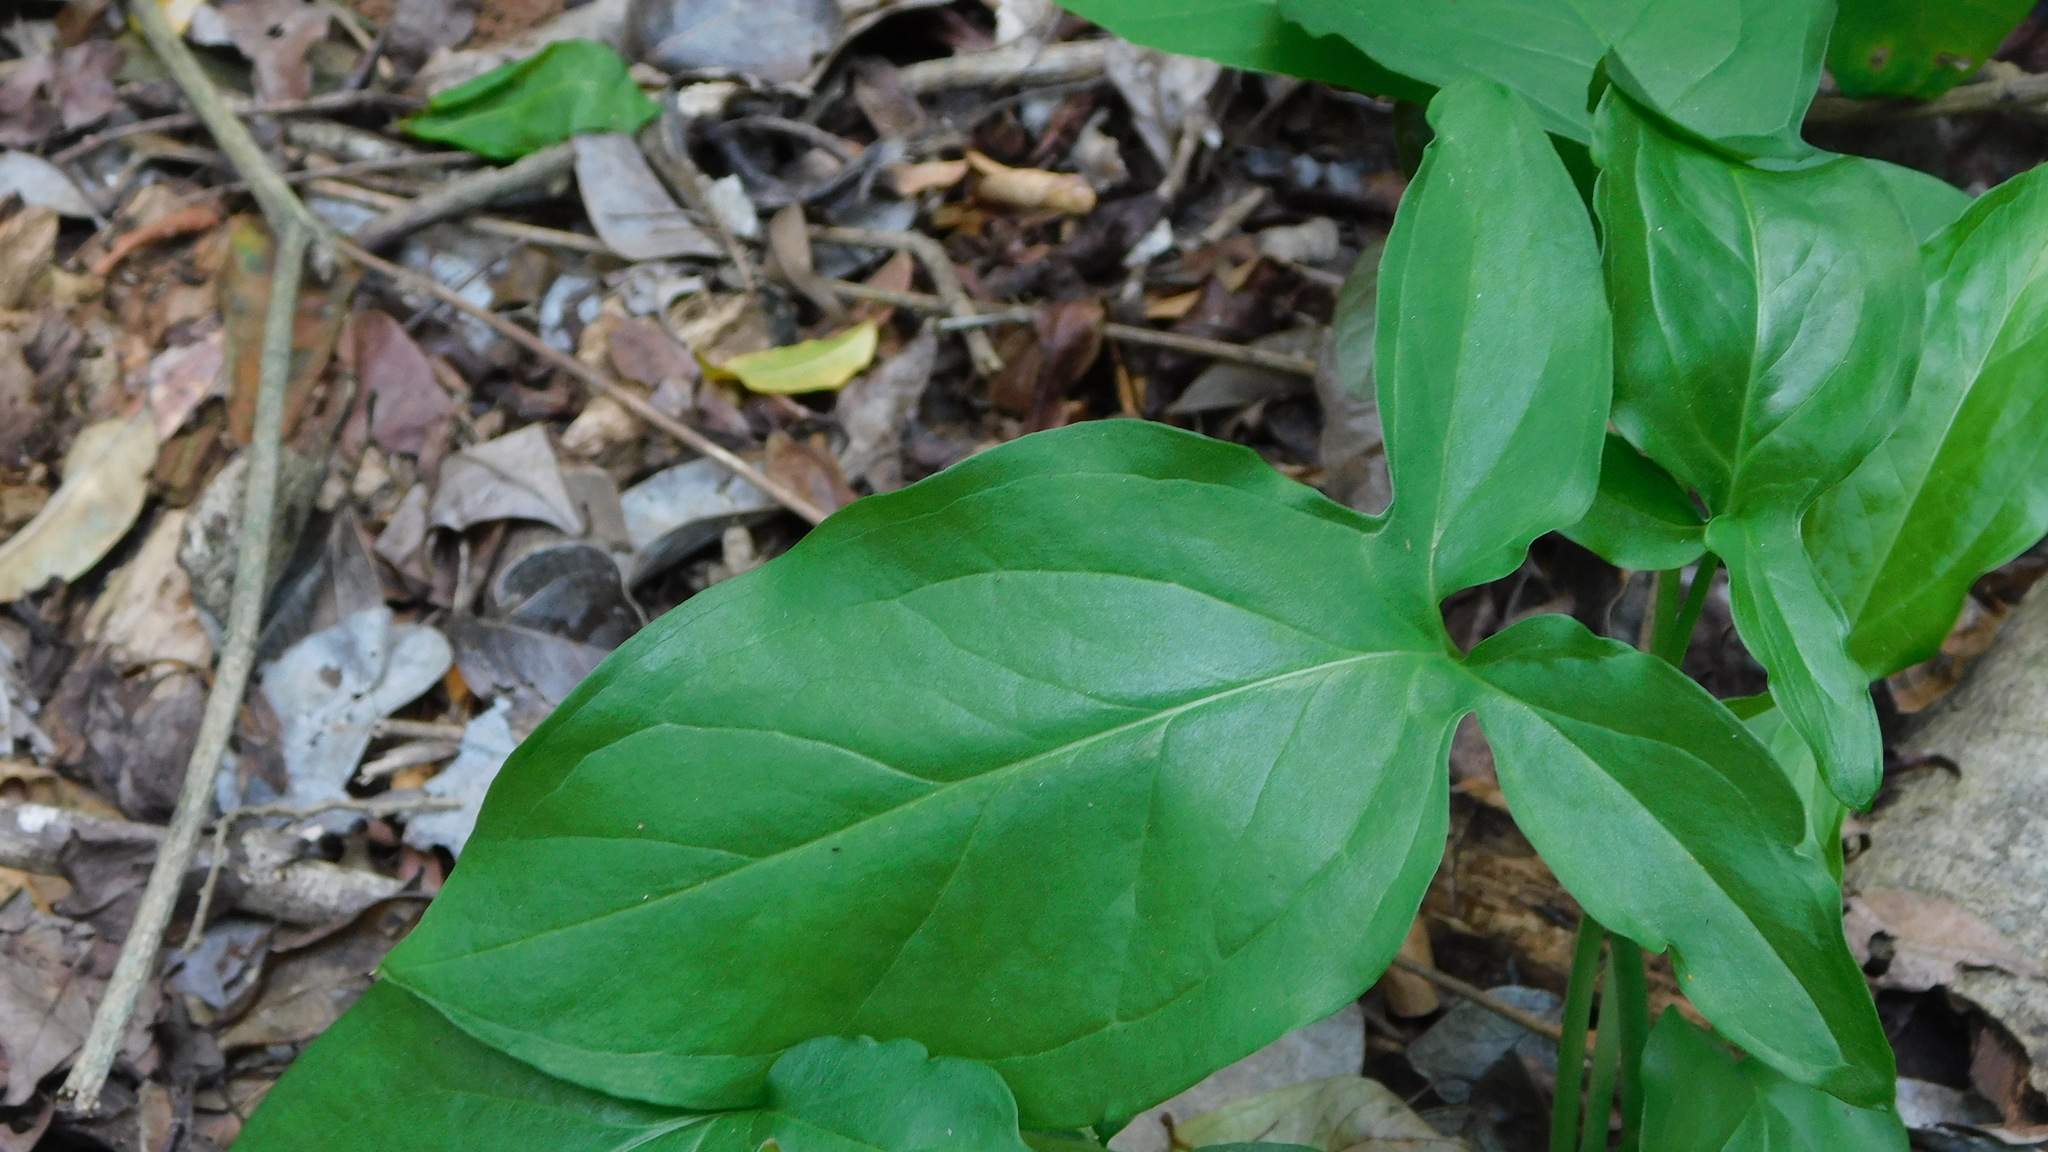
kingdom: Plantae
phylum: Tracheophyta
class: Liliopsida
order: Alismatales
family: Araceae
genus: Spathicarpa
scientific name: Spathicarpa hastifolia
